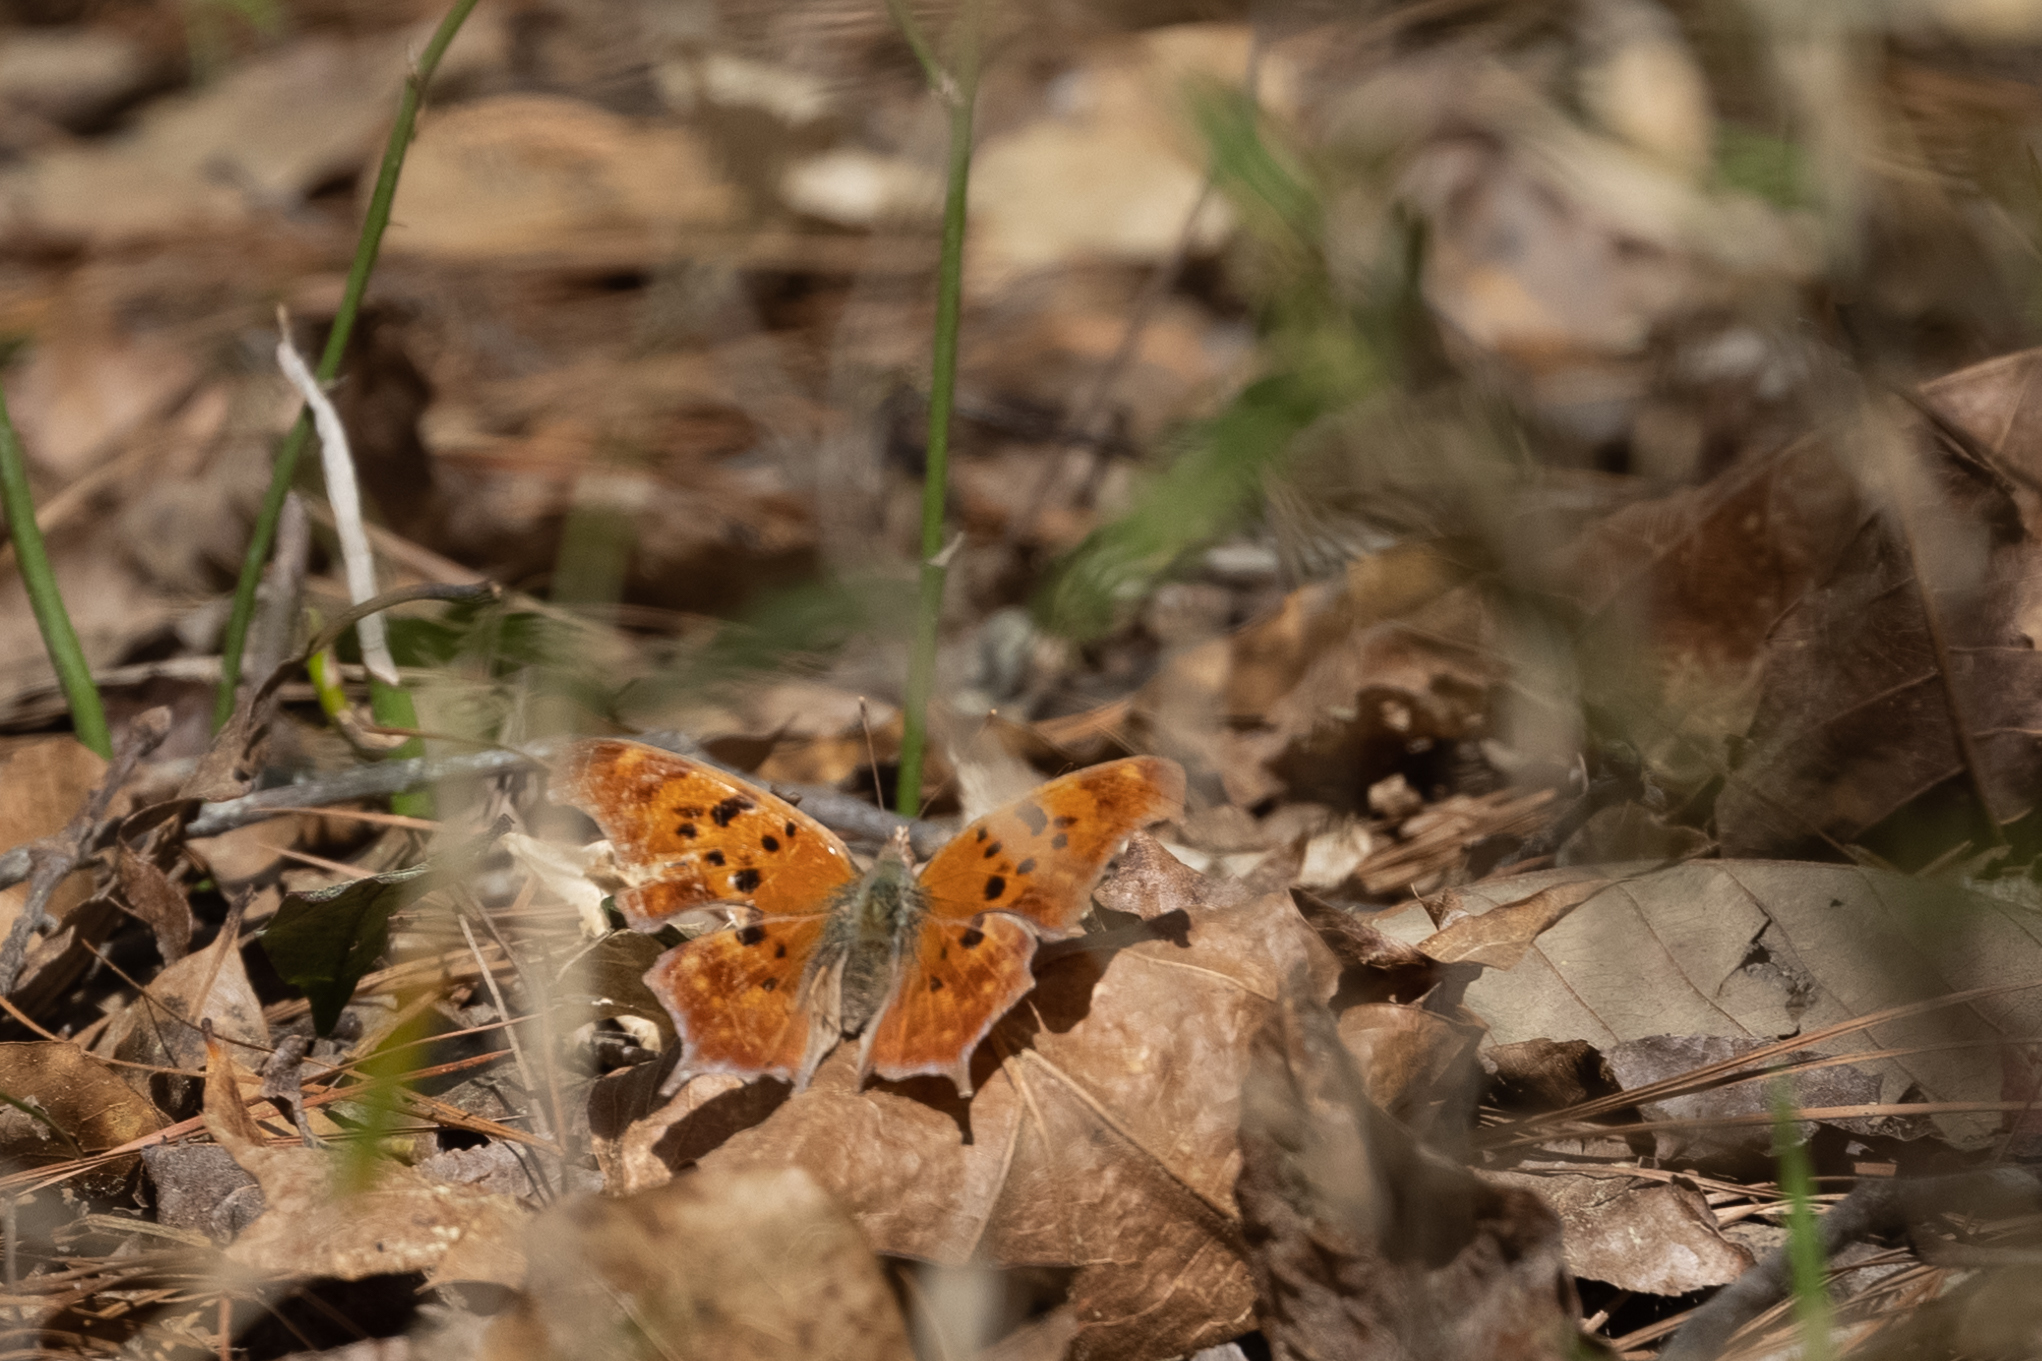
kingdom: Animalia
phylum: Arthropoda
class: Insecta
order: Lepidoptera
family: Nymphalidae
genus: Polygonia
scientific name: Polygonia interrogationis
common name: Question mark
